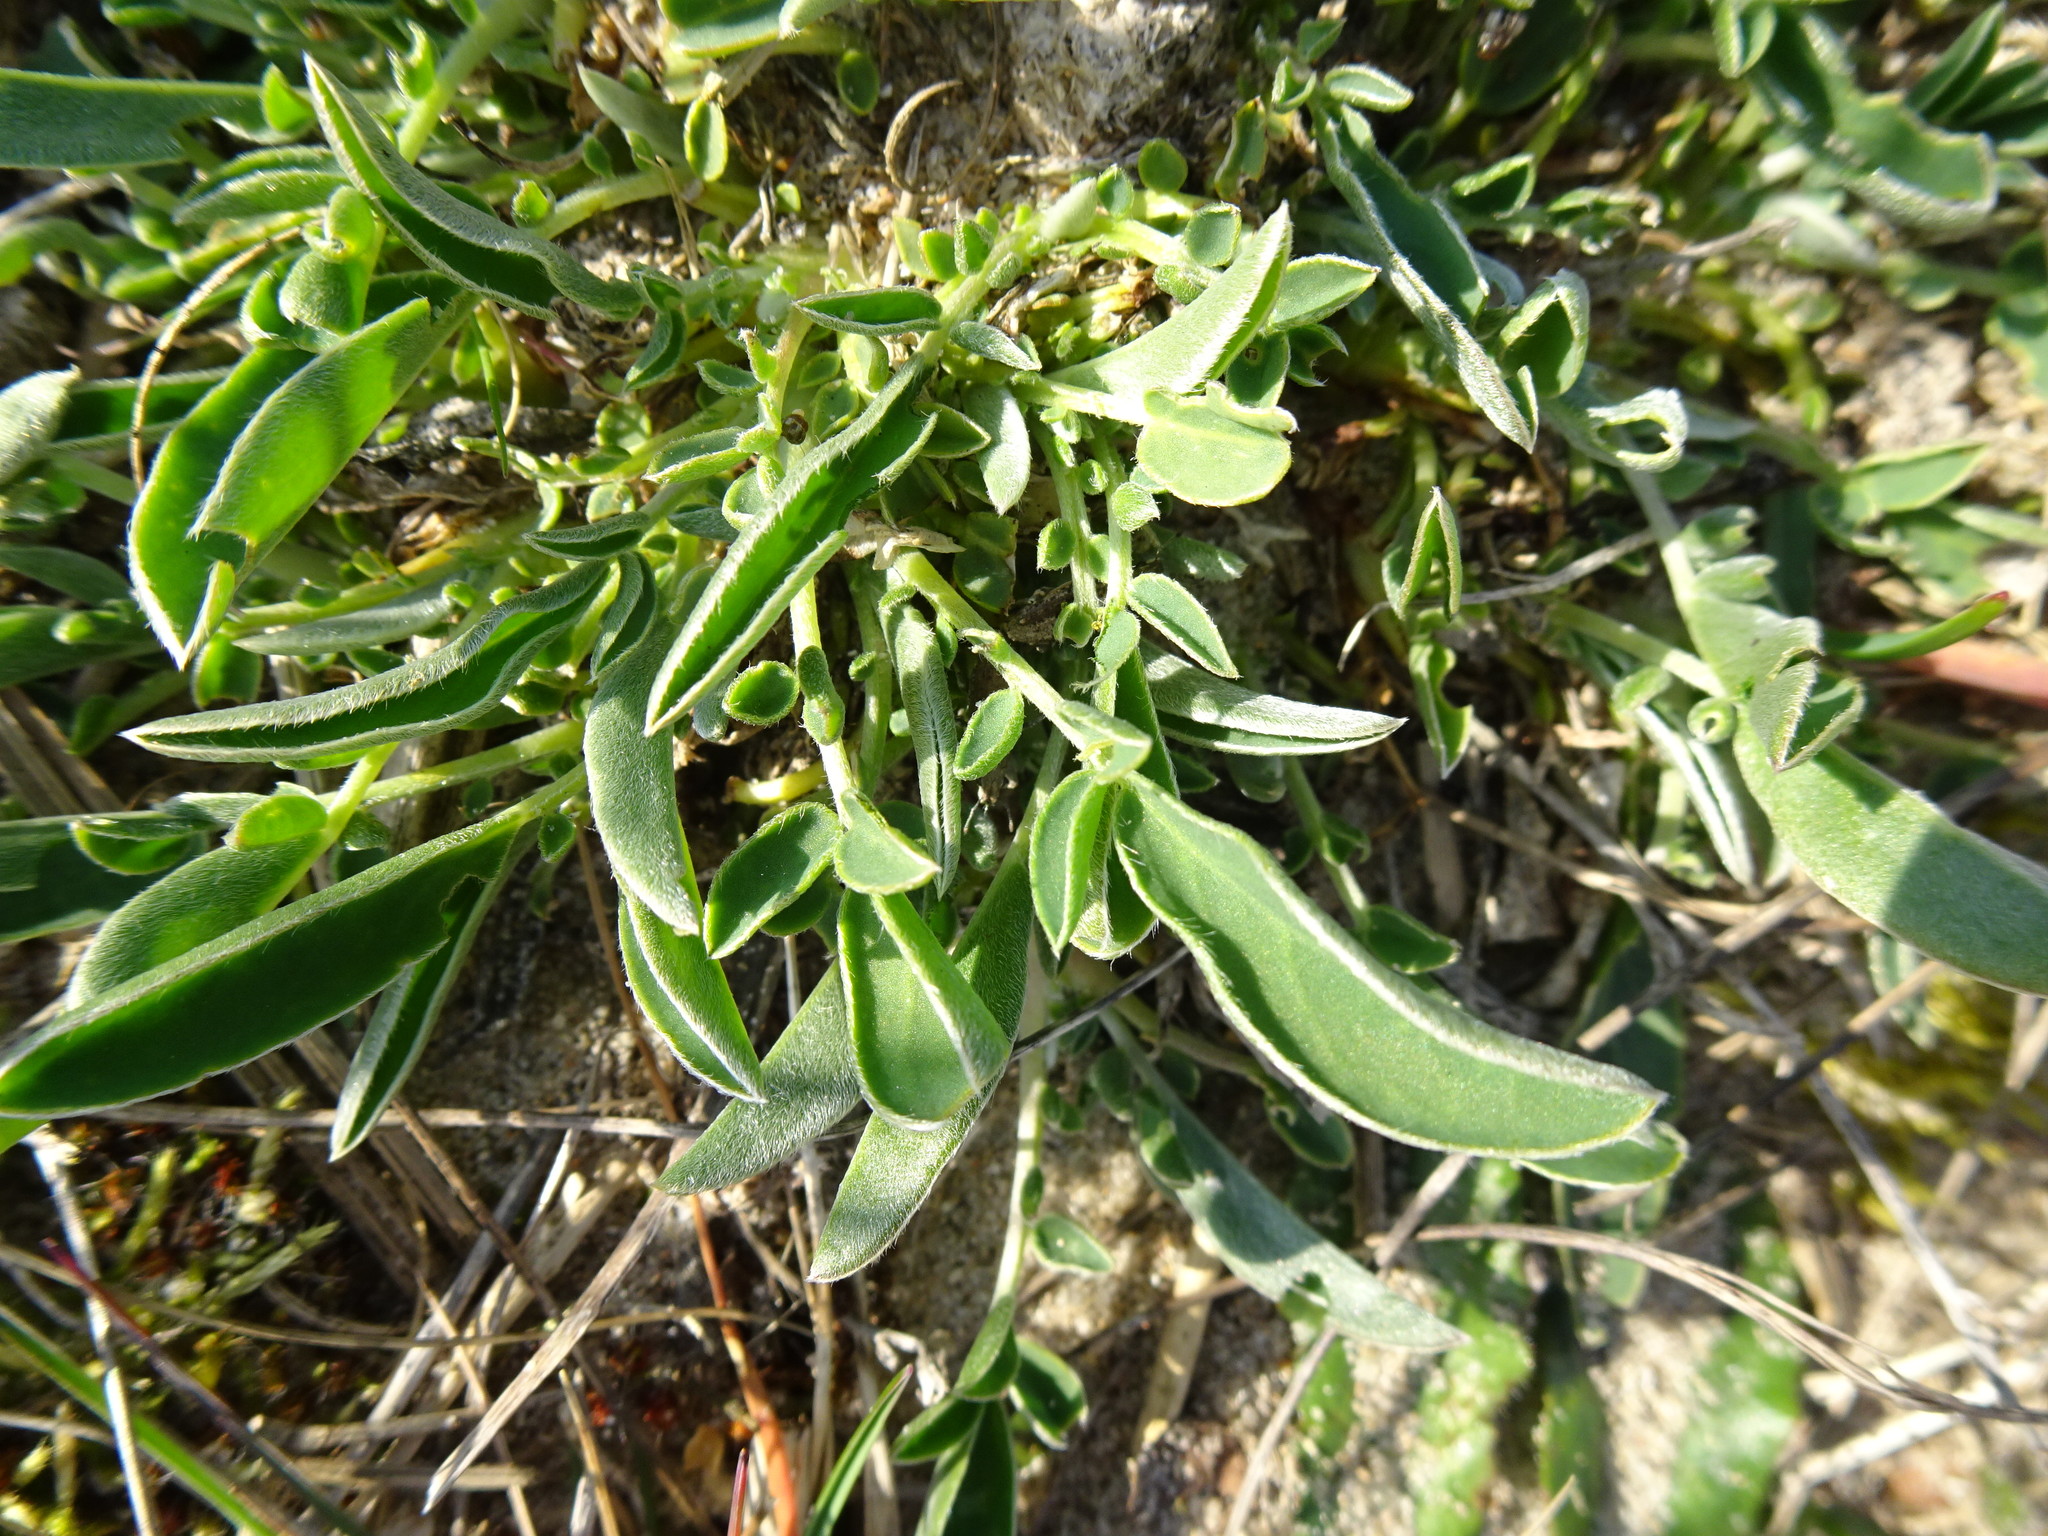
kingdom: Plantae
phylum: Tracheophyta
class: Magnoliopsida
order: Fabales
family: Fabaceae
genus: Anthyllis
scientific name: Anthyllis vulneraria
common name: Kidney vetch
